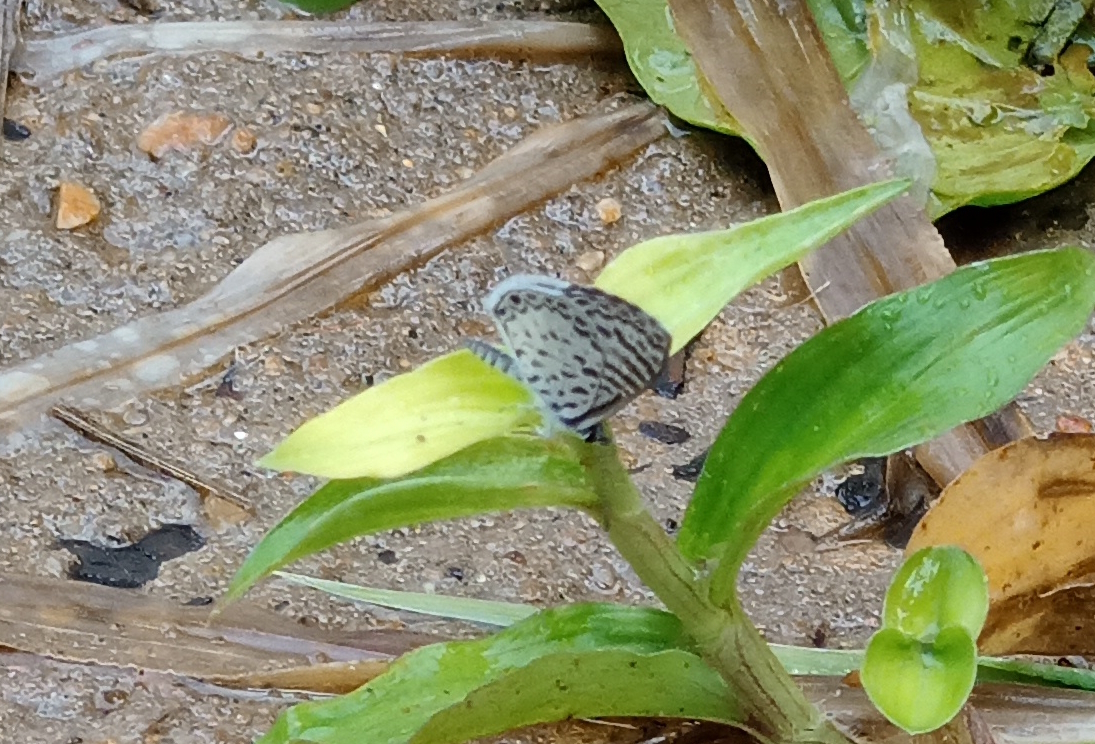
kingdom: Animalia
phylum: Arthropoda
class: Insecta
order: Lepidoptera
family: Lycaenidae
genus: Leptotes
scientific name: Leptotes cassius
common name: Cassius blue
